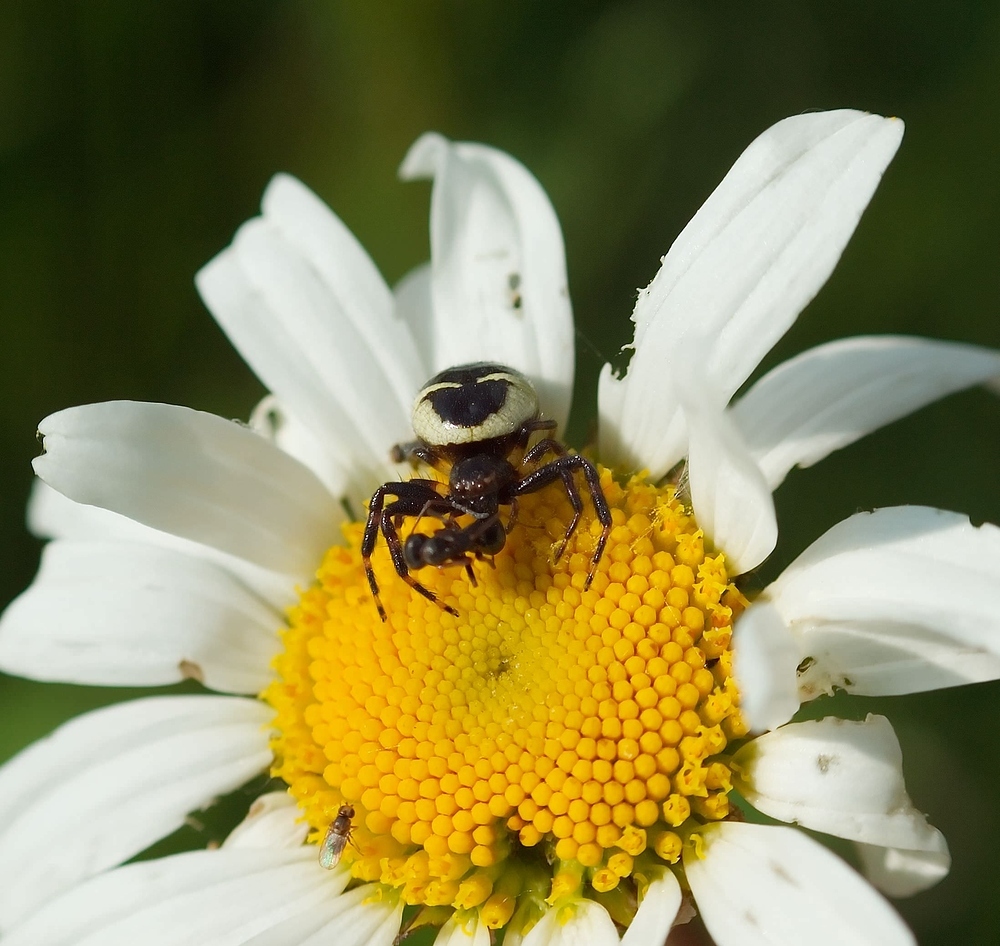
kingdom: Animalia
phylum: Arthropoda
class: Arachnida
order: Araneae
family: Thomisidae
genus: Synema
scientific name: Synema globosum
